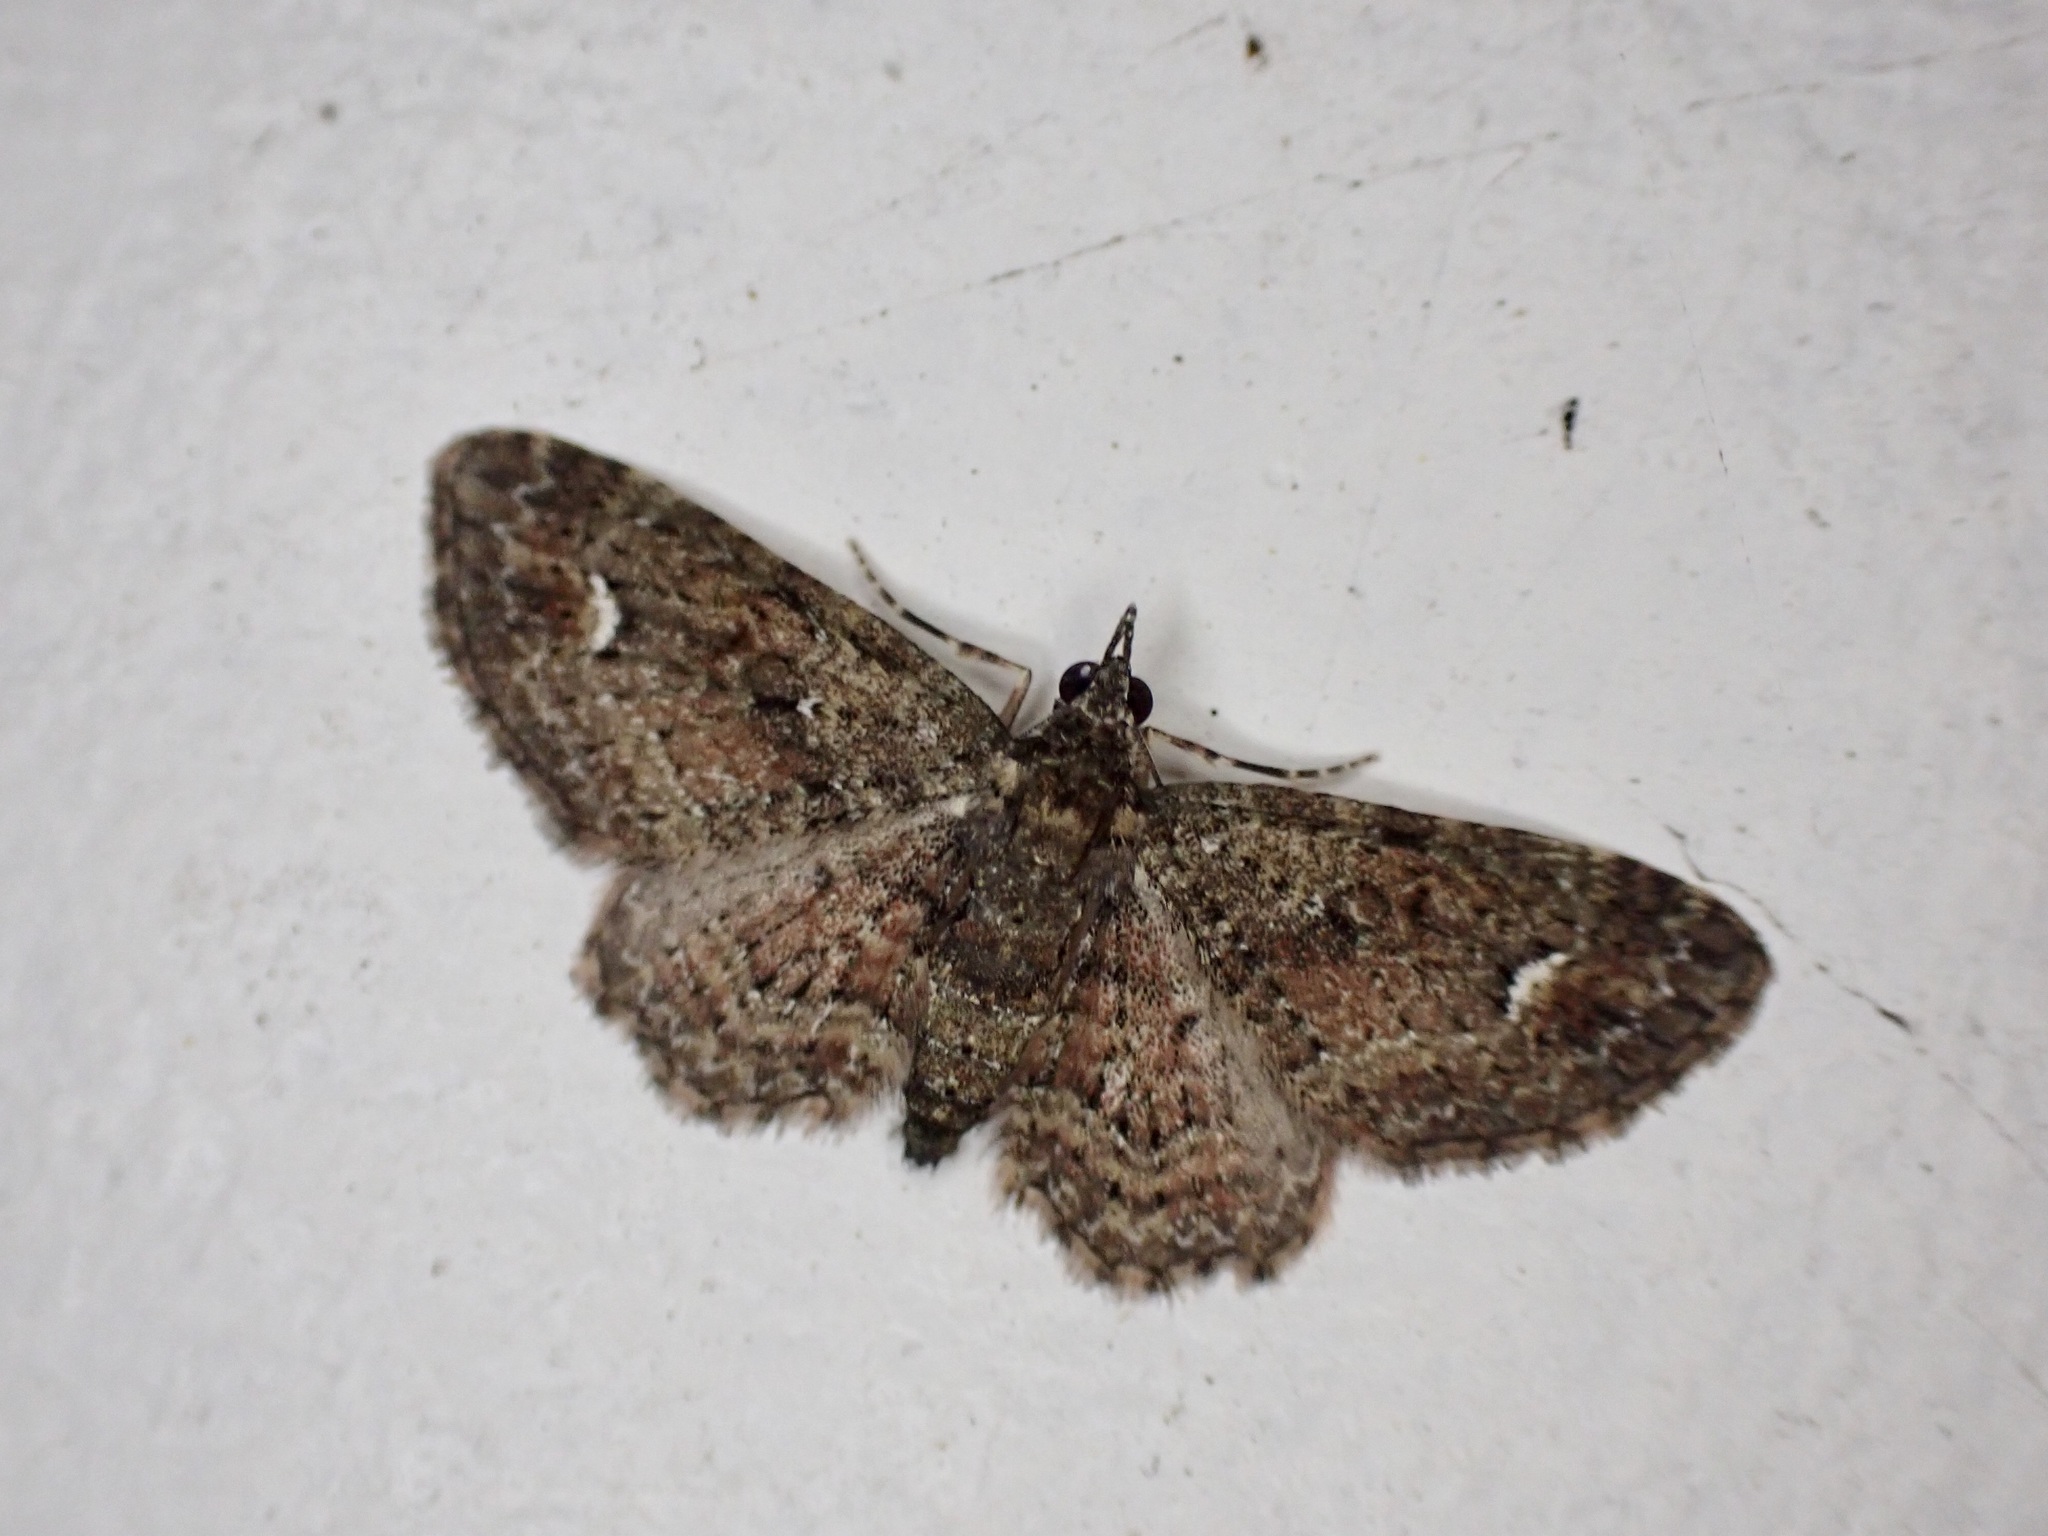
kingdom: Animalia
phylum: Arthropoda
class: Insecta
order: Lepidoptera
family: Geometridae
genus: Pasiphilodes
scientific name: Pasiphilodes testulata
